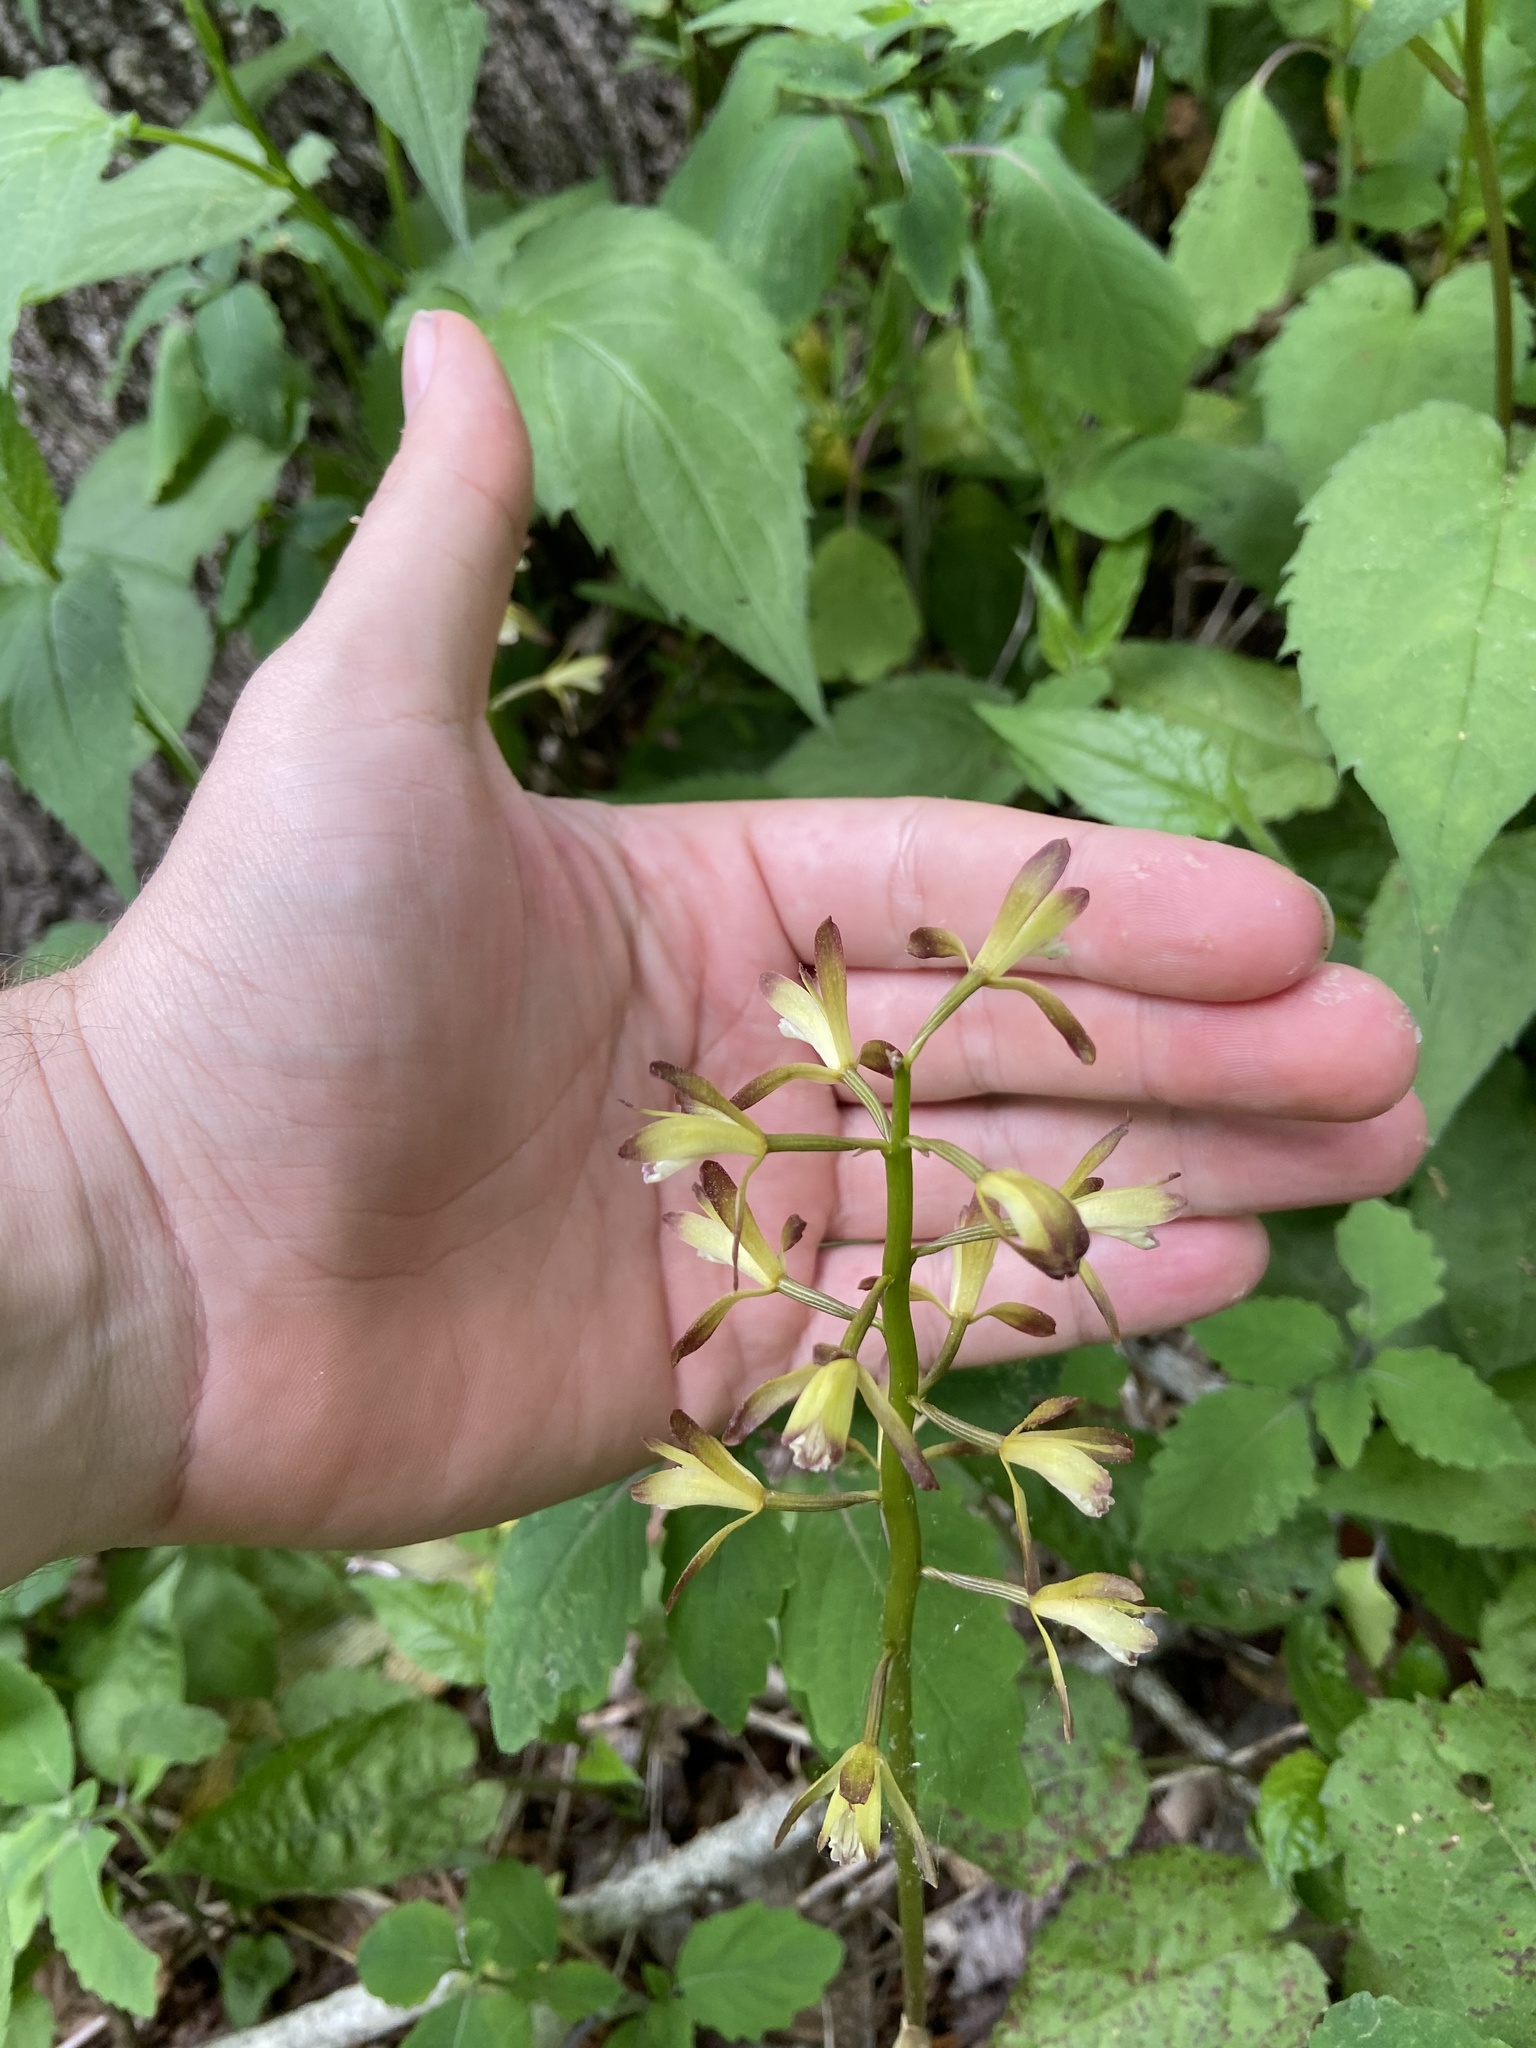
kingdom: Plantae
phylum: Tracheophyta
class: Liliopsida
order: Asparagales
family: Orchidaceae
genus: Aplectrum
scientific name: Aplectrum hyemale
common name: Adam-and-eve
